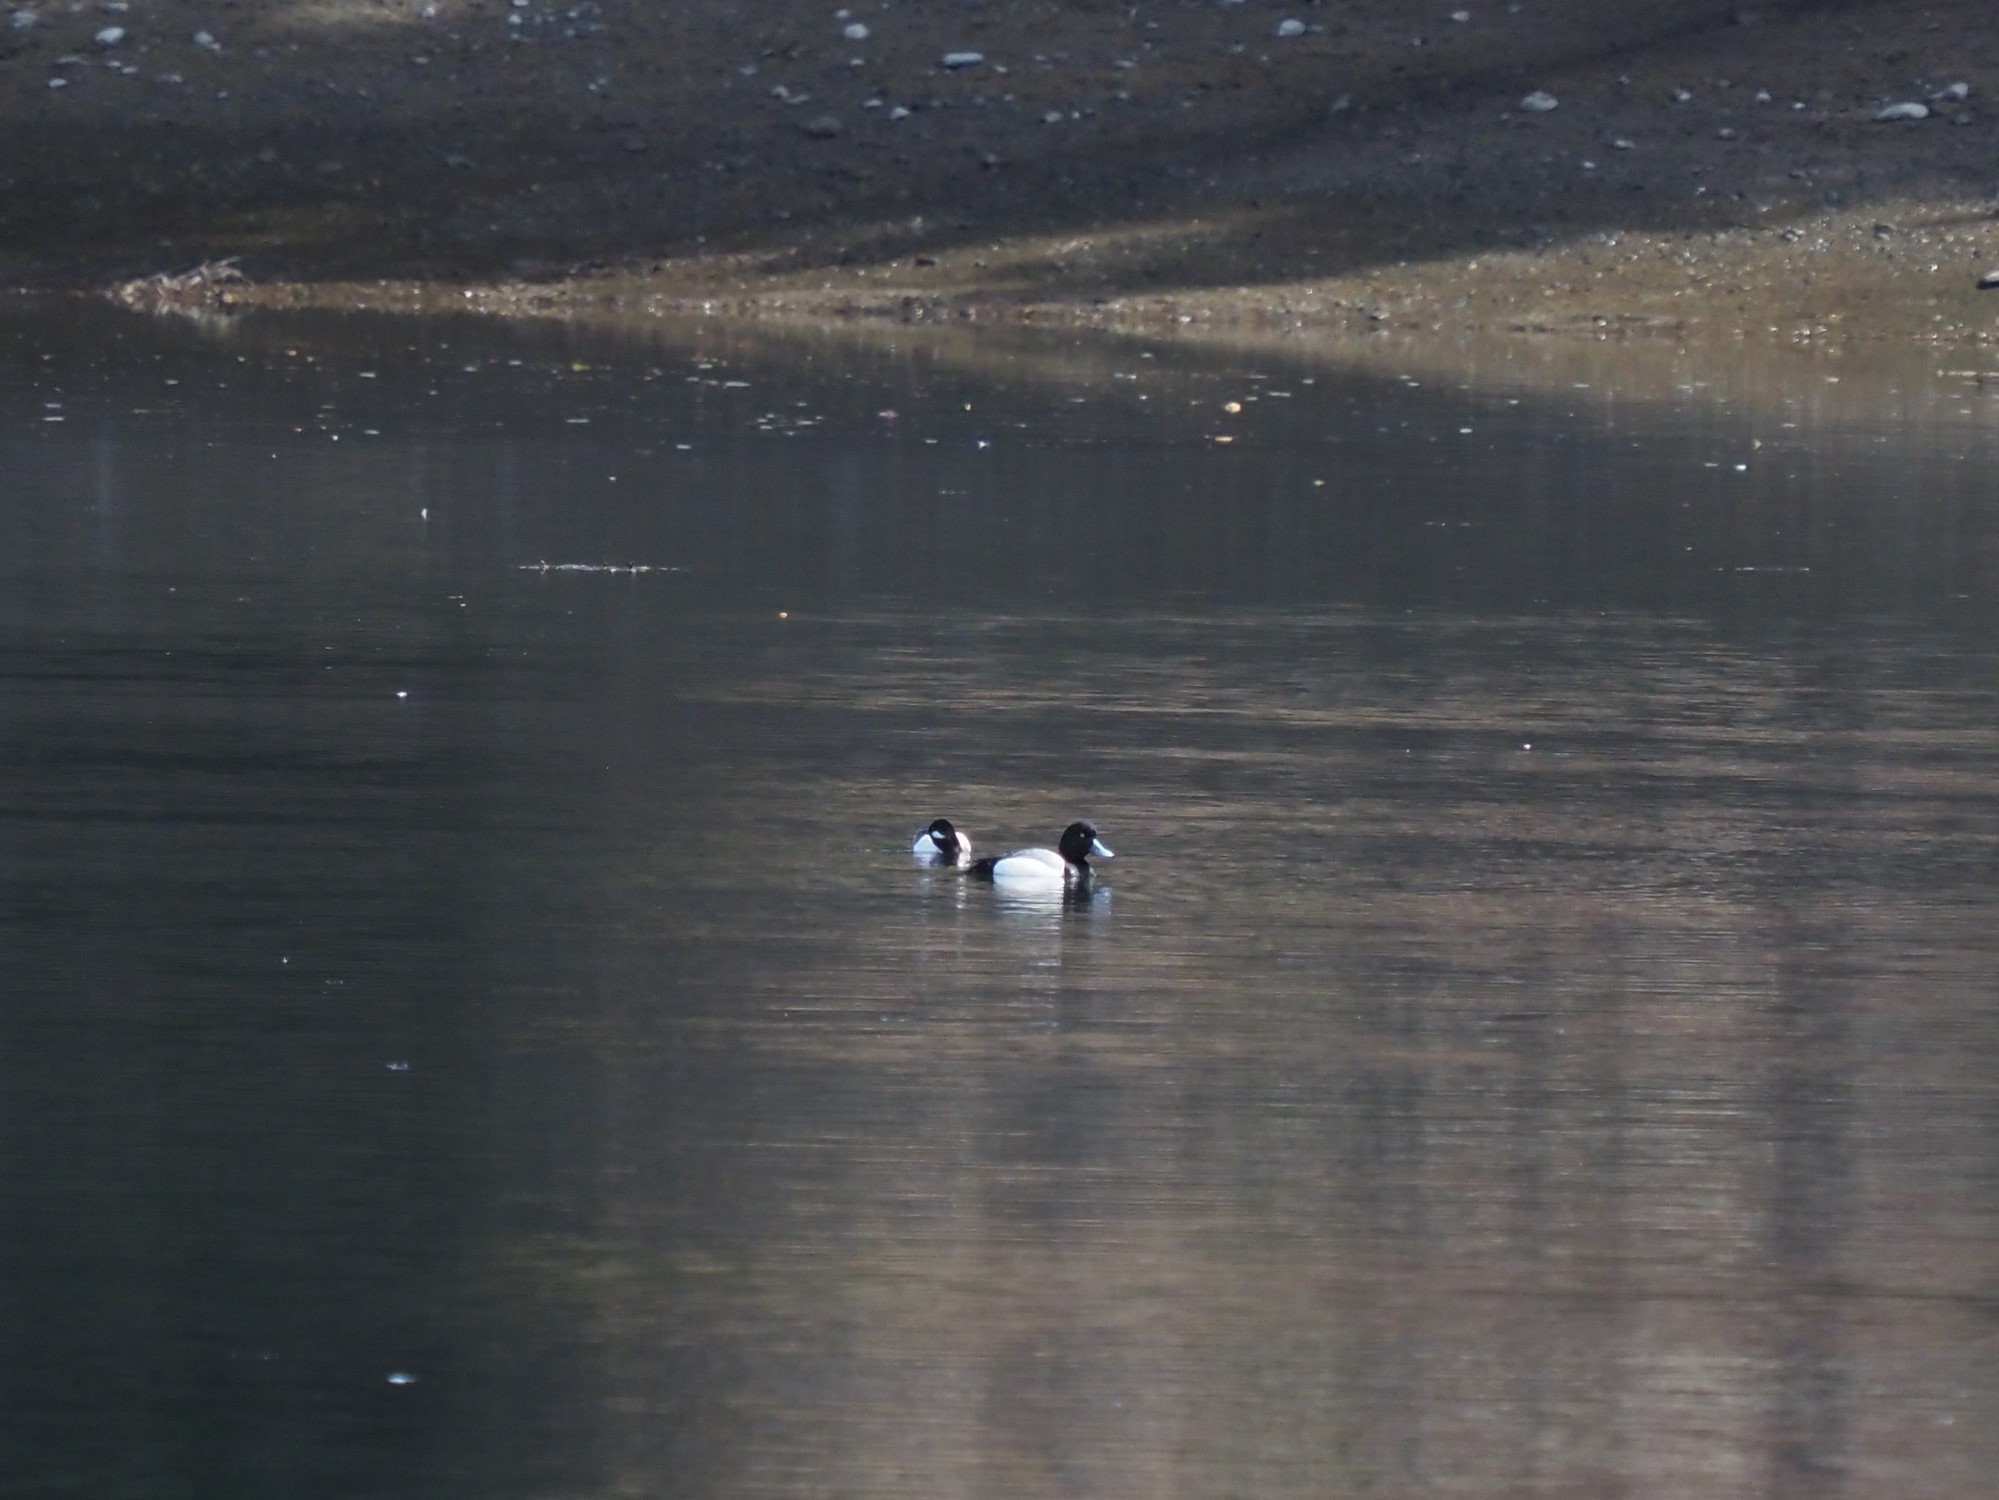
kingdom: Animalia
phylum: Chordata
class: Aves
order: Anseriformes
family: Anatidae
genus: Aythya
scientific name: Aythya marila
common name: Greater scaup
